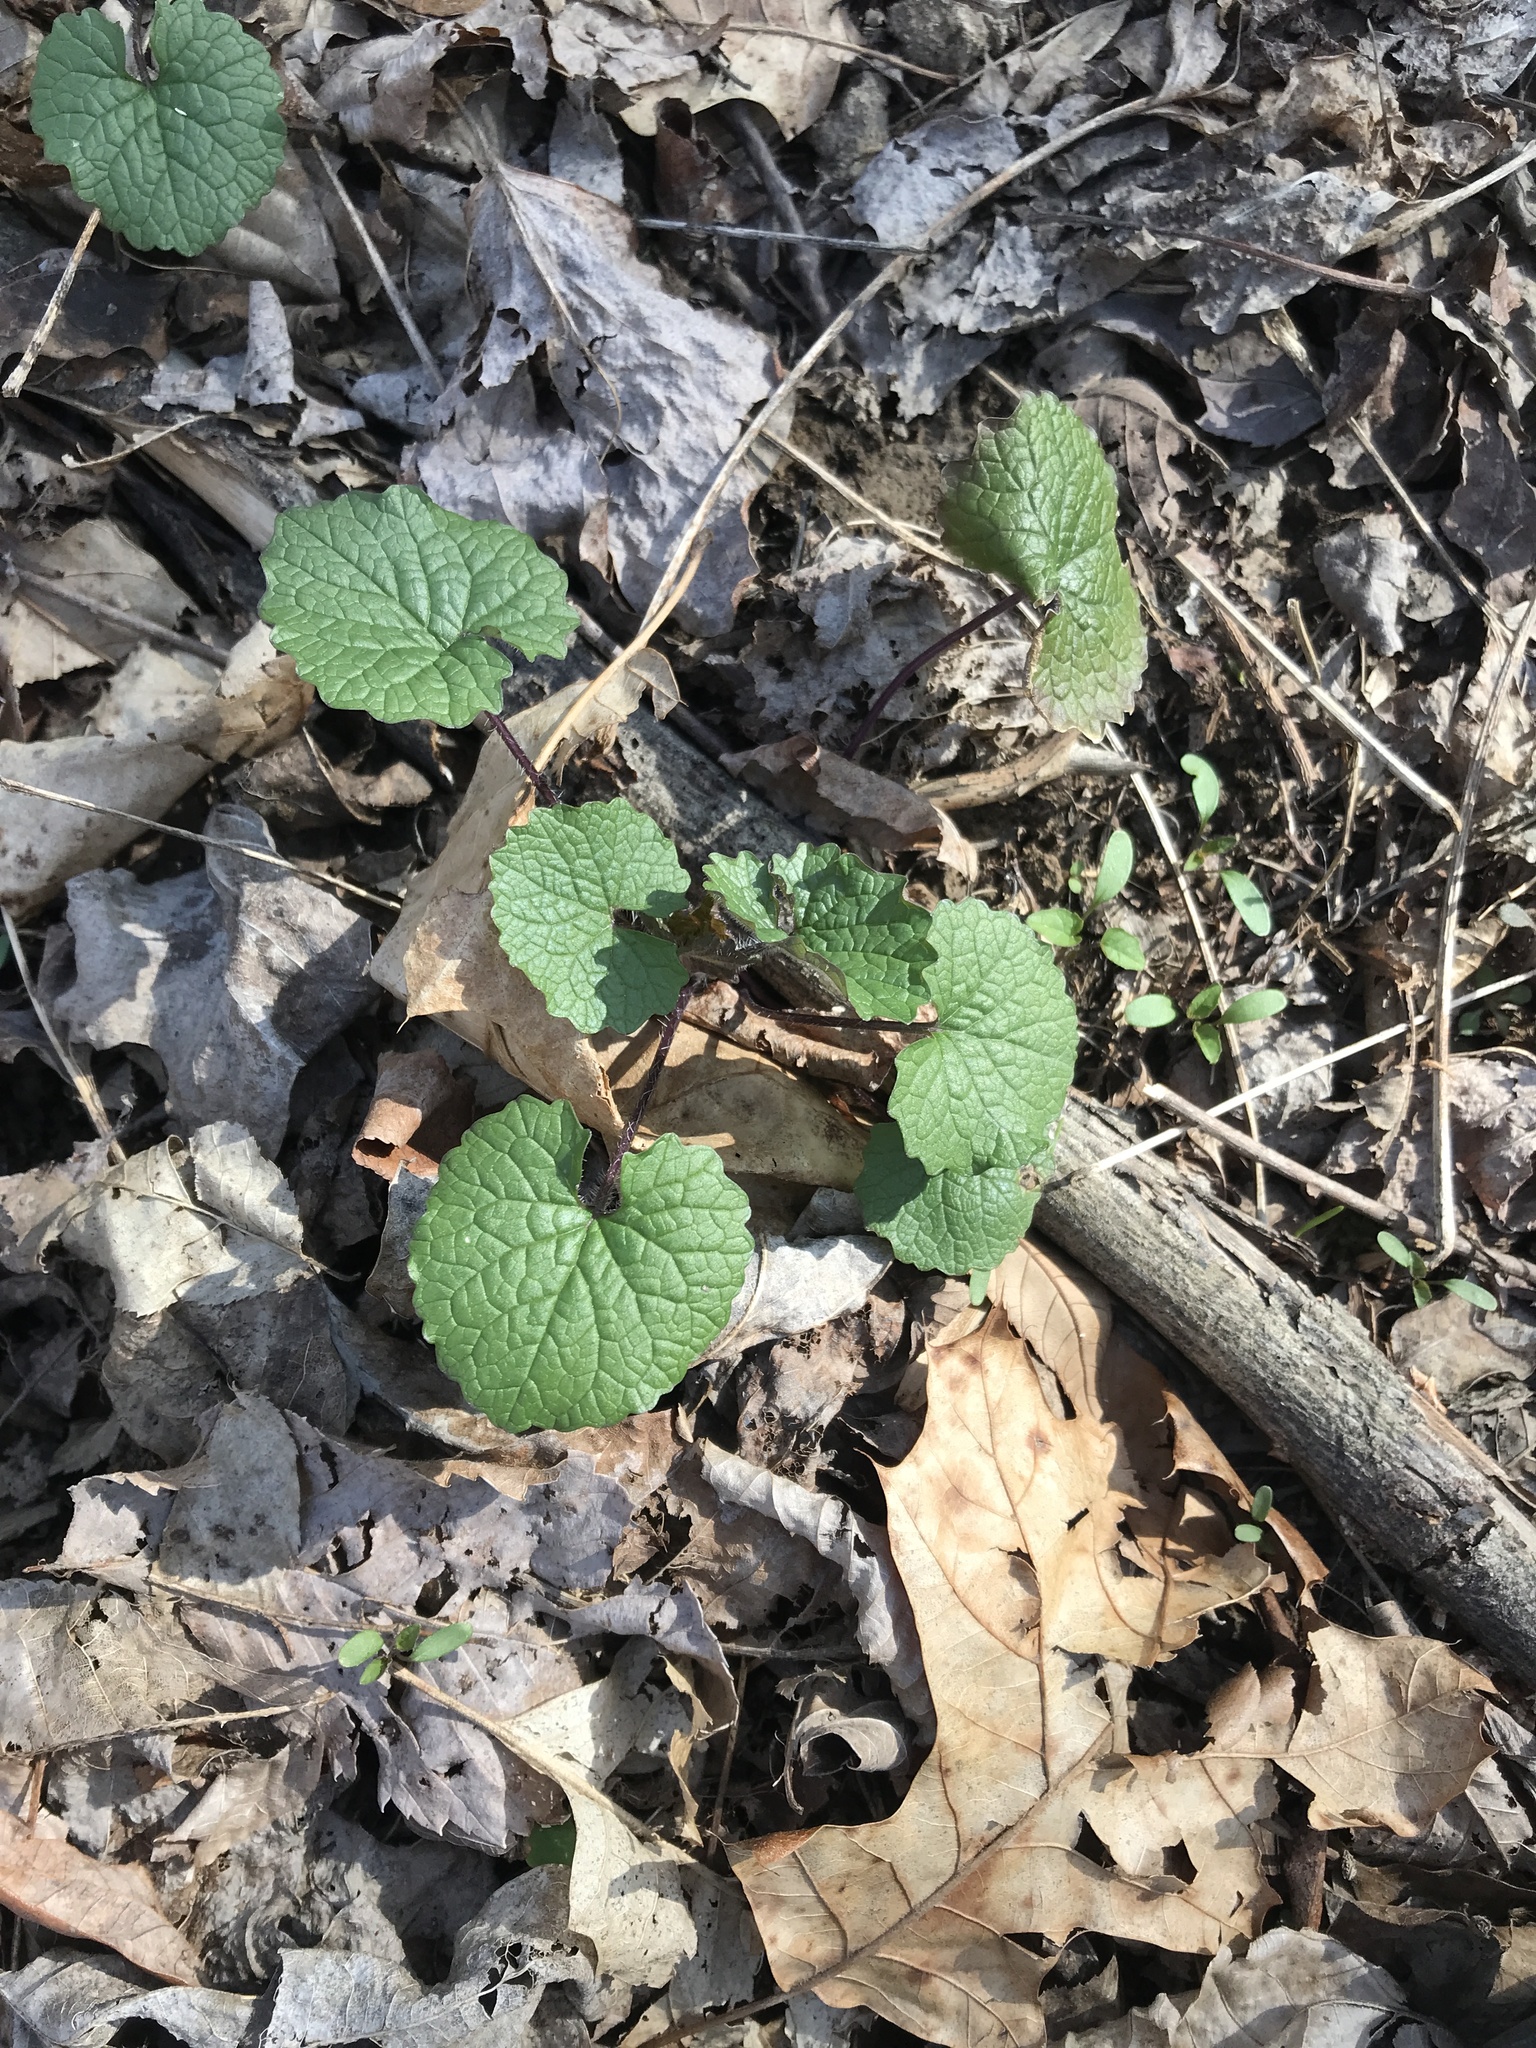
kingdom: Plantae
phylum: Tracheophyta
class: Magnoliopsida
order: Brassicales
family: Brassicaceae
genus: Alliaria
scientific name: Alliaria petiolata
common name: Garlic mustard
